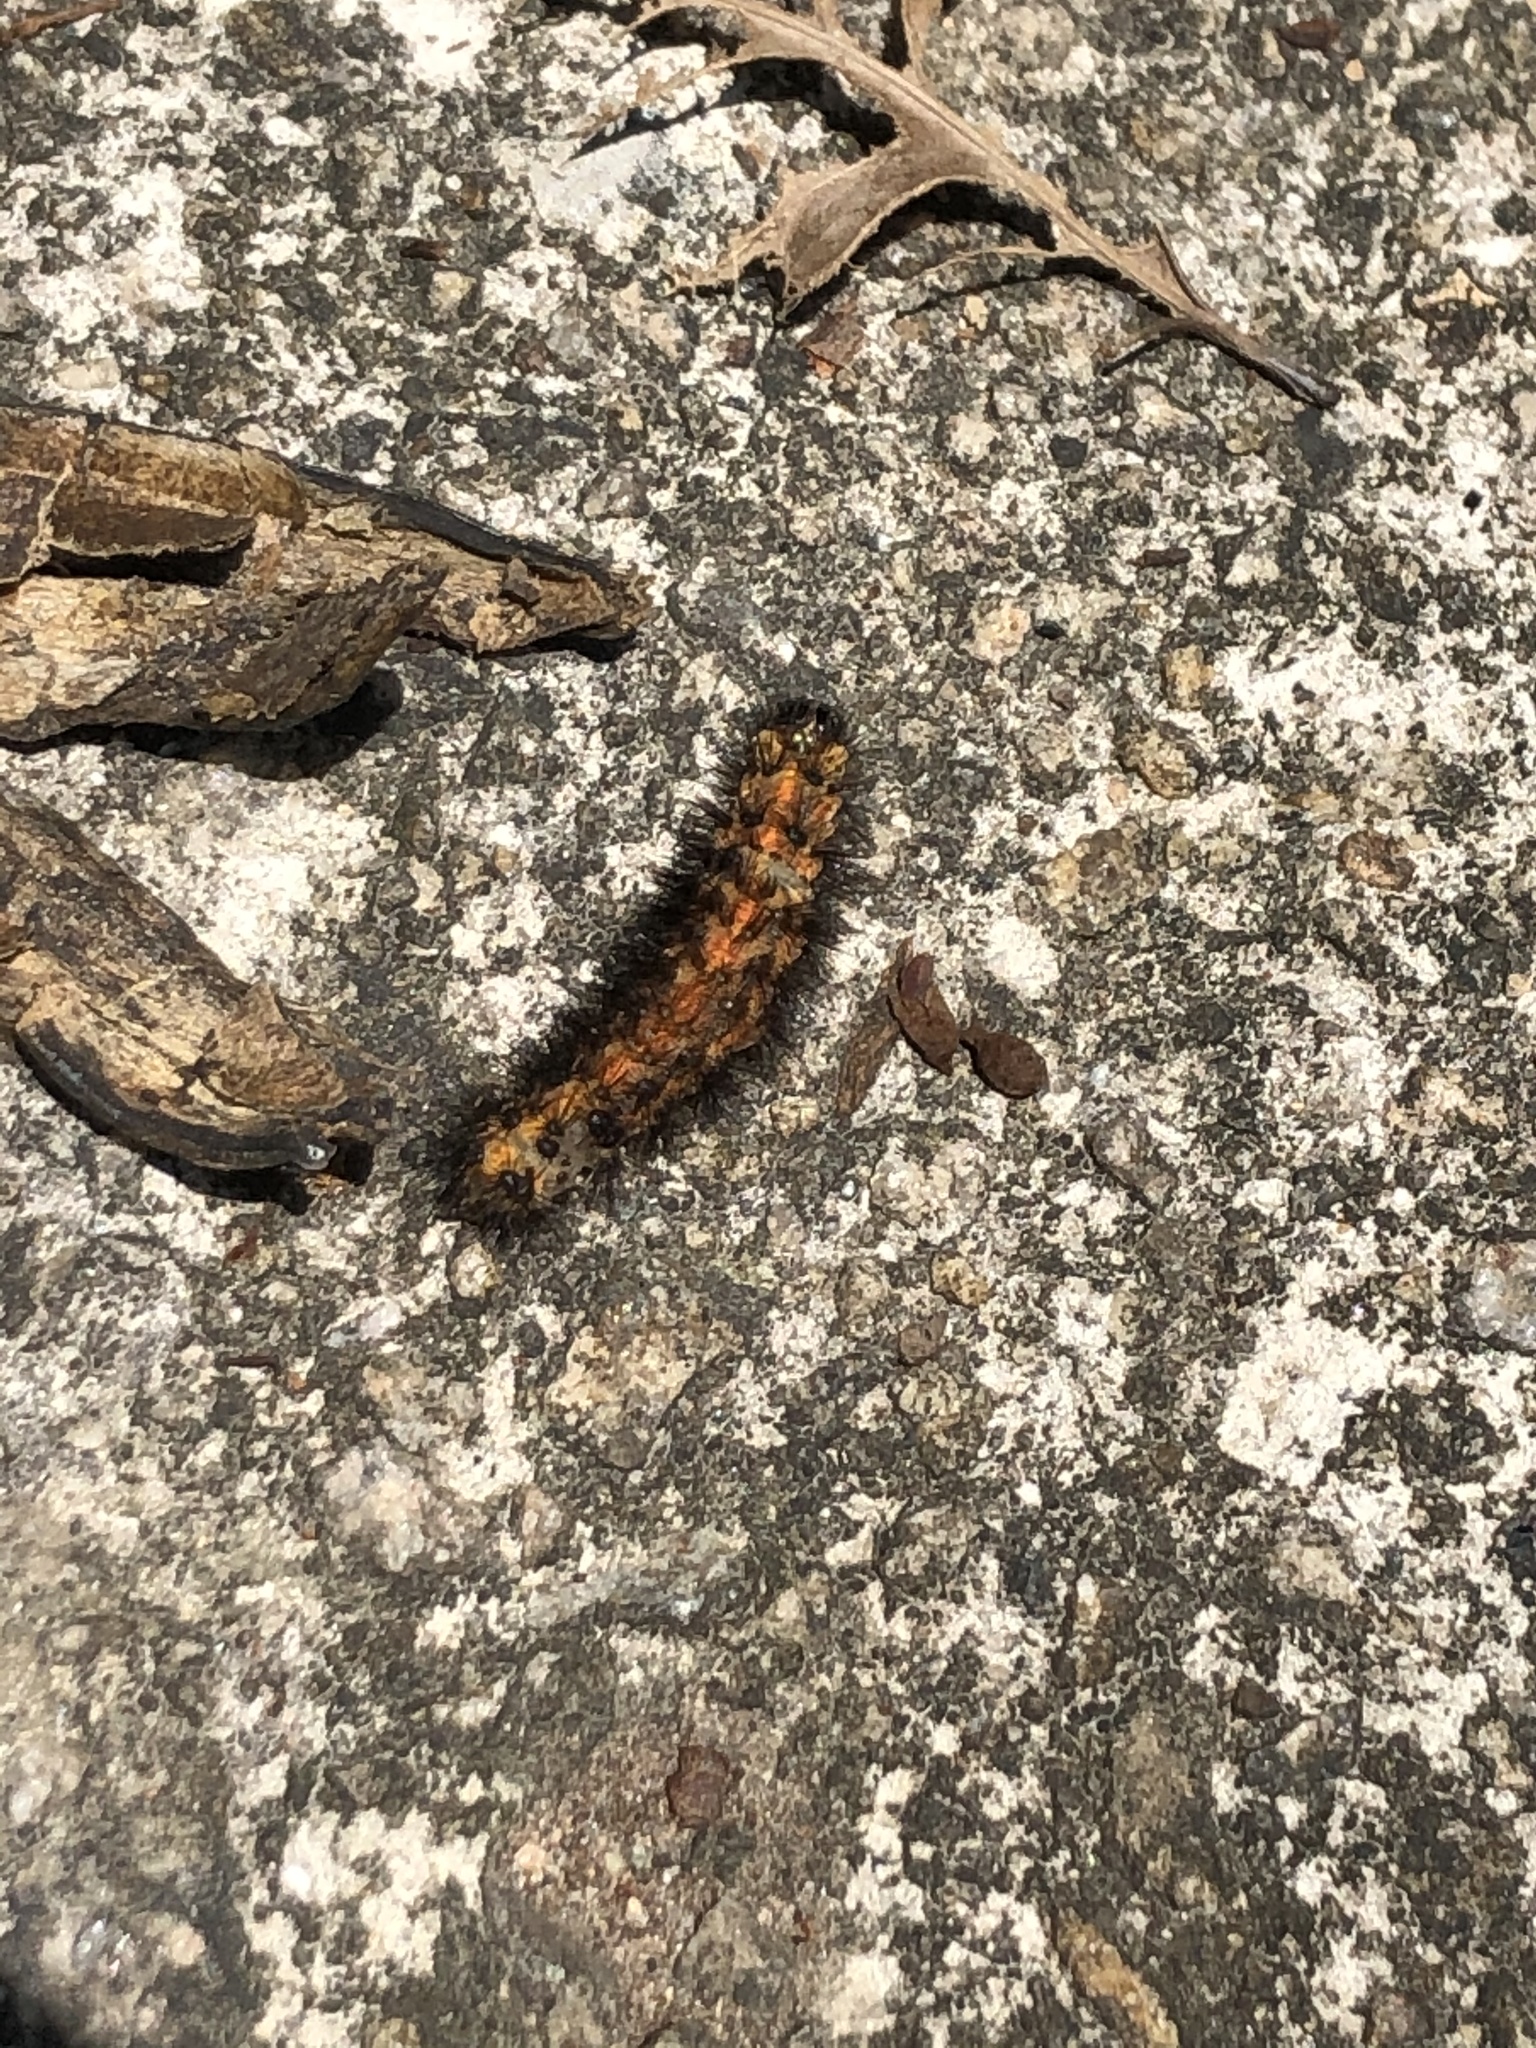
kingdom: Animalia
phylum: Arthropoda
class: Insecta
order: Lepidoptera
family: Erebidae
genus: Spilarctia
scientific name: Spilarctia subcarnea
